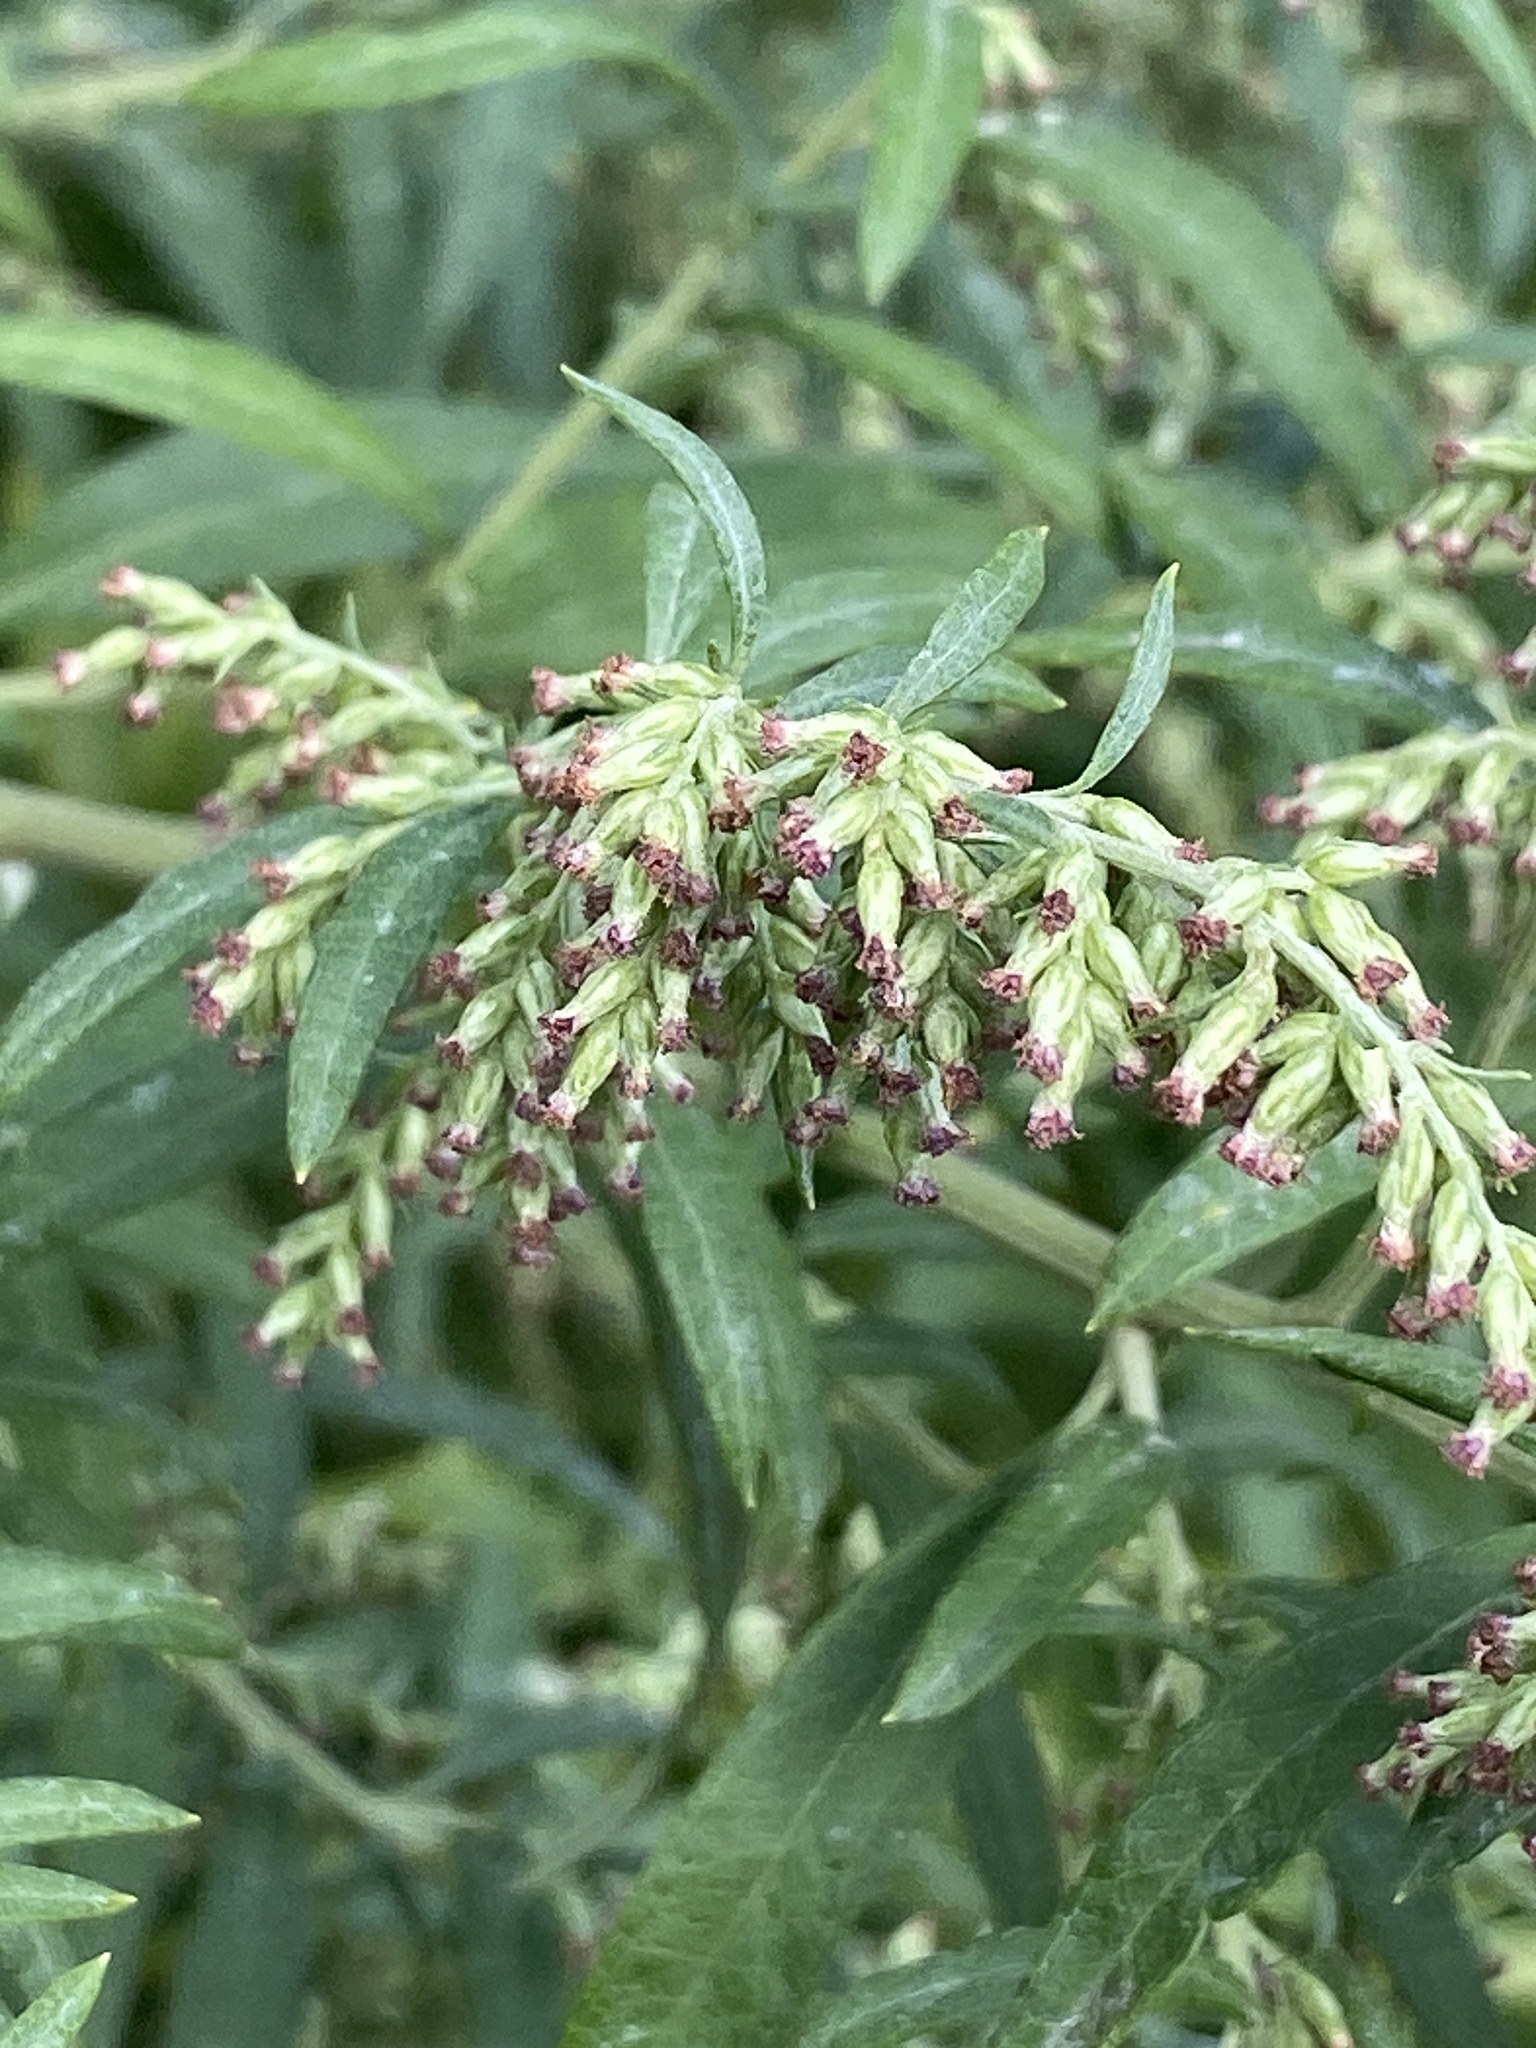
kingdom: Plantae
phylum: Tracheophyta
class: Magnoliopsida
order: Asterales
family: Asteraceae
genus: Artemisia
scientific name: Artemisia vulgaris
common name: Mugwort
